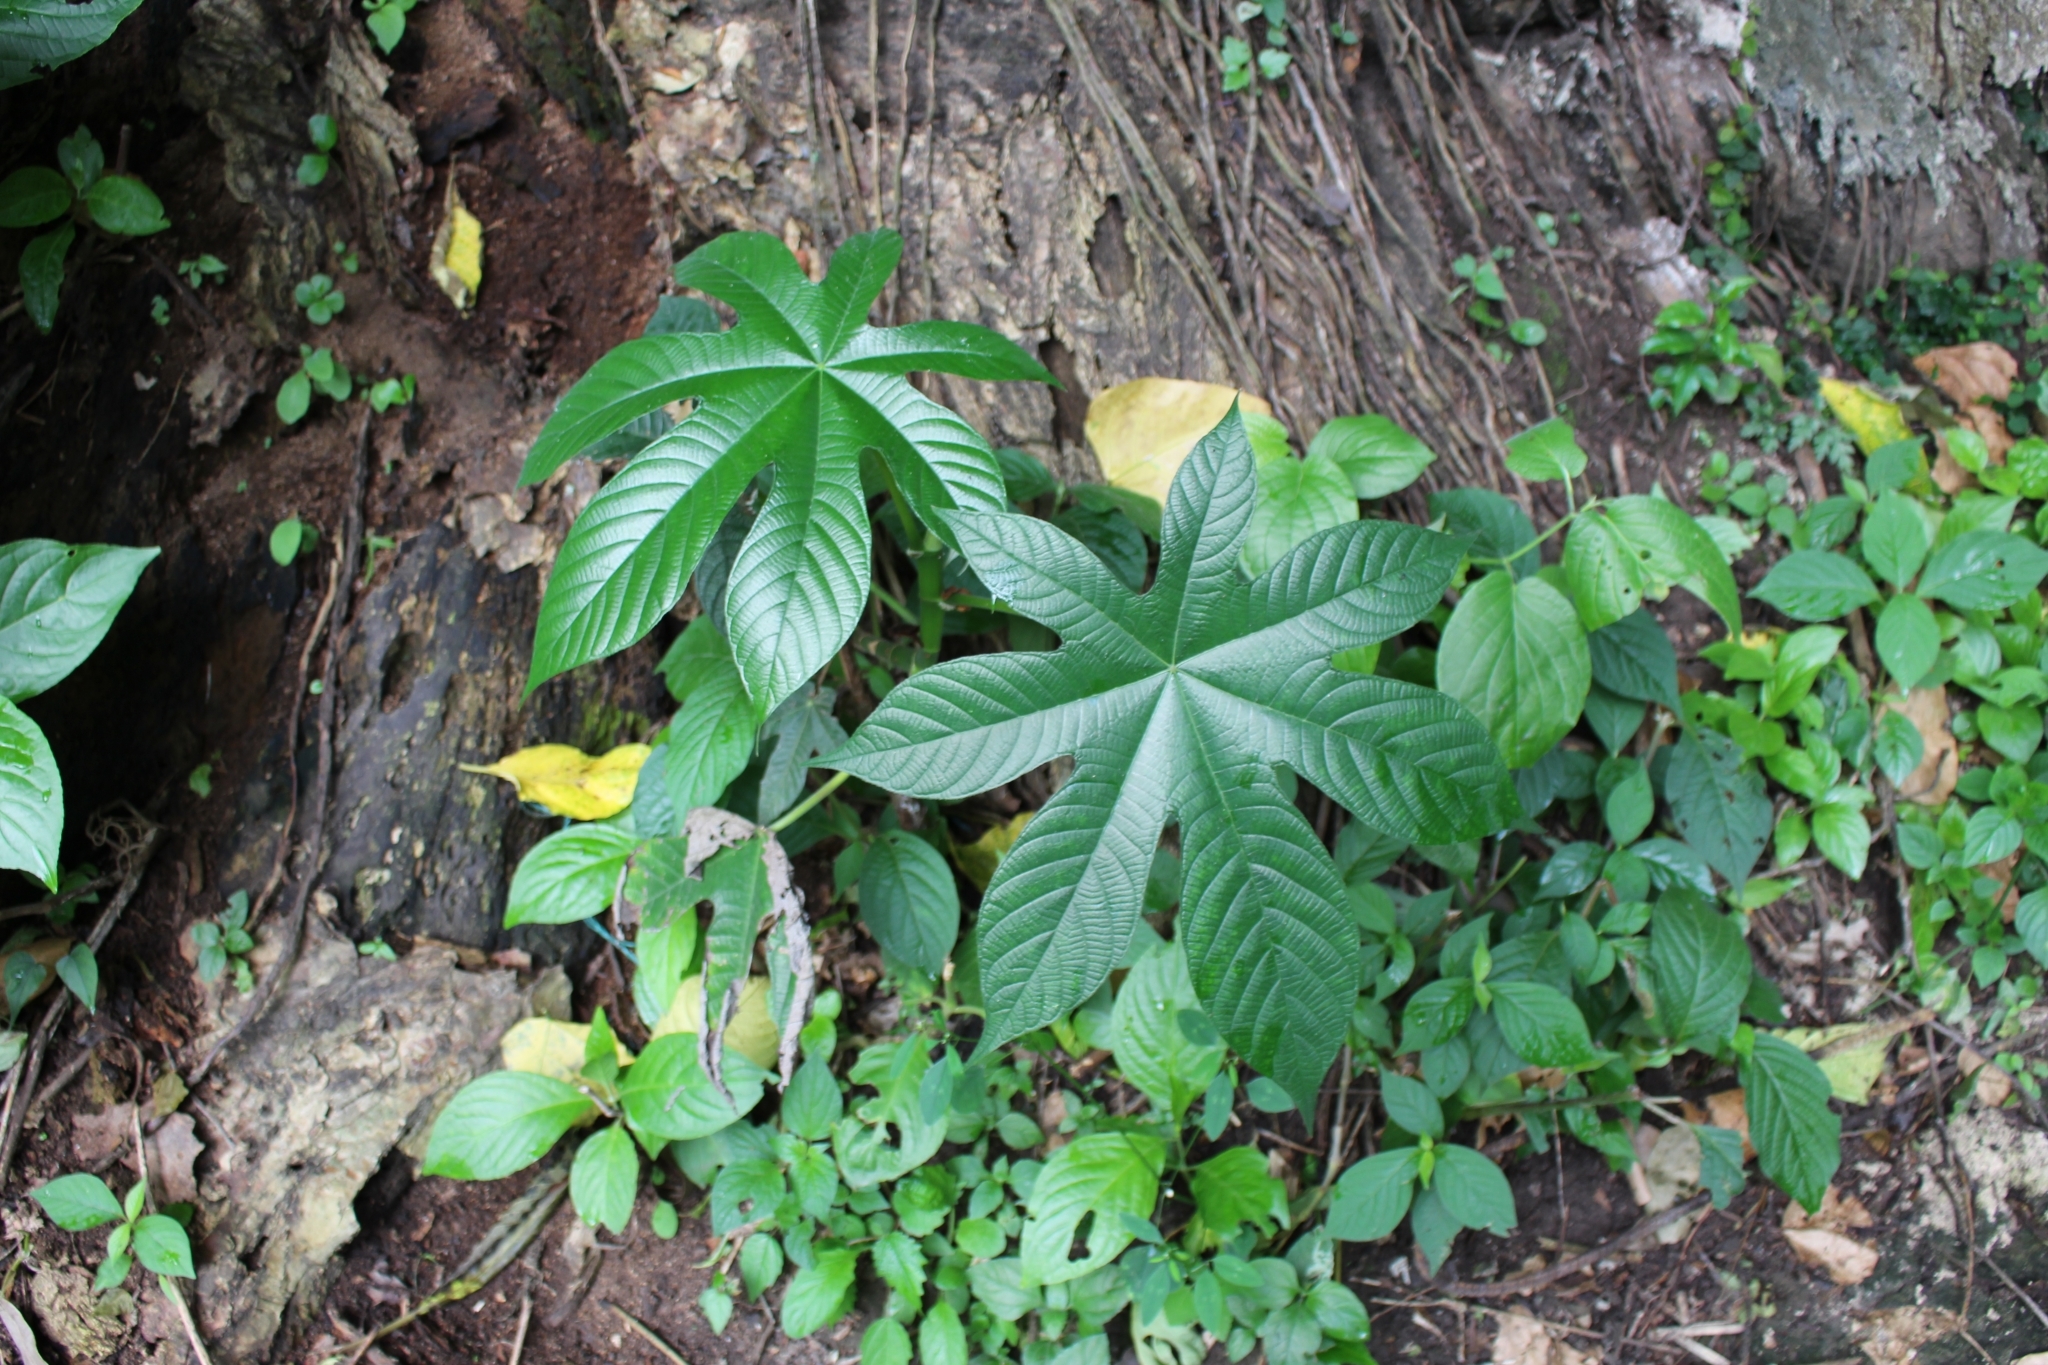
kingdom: Plantae
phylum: Tracheophyta
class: Magnoliopsida
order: Rosales
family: Urticaceae
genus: Cecropia
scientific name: Cecropia obtusifolia
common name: Trumpet tree
